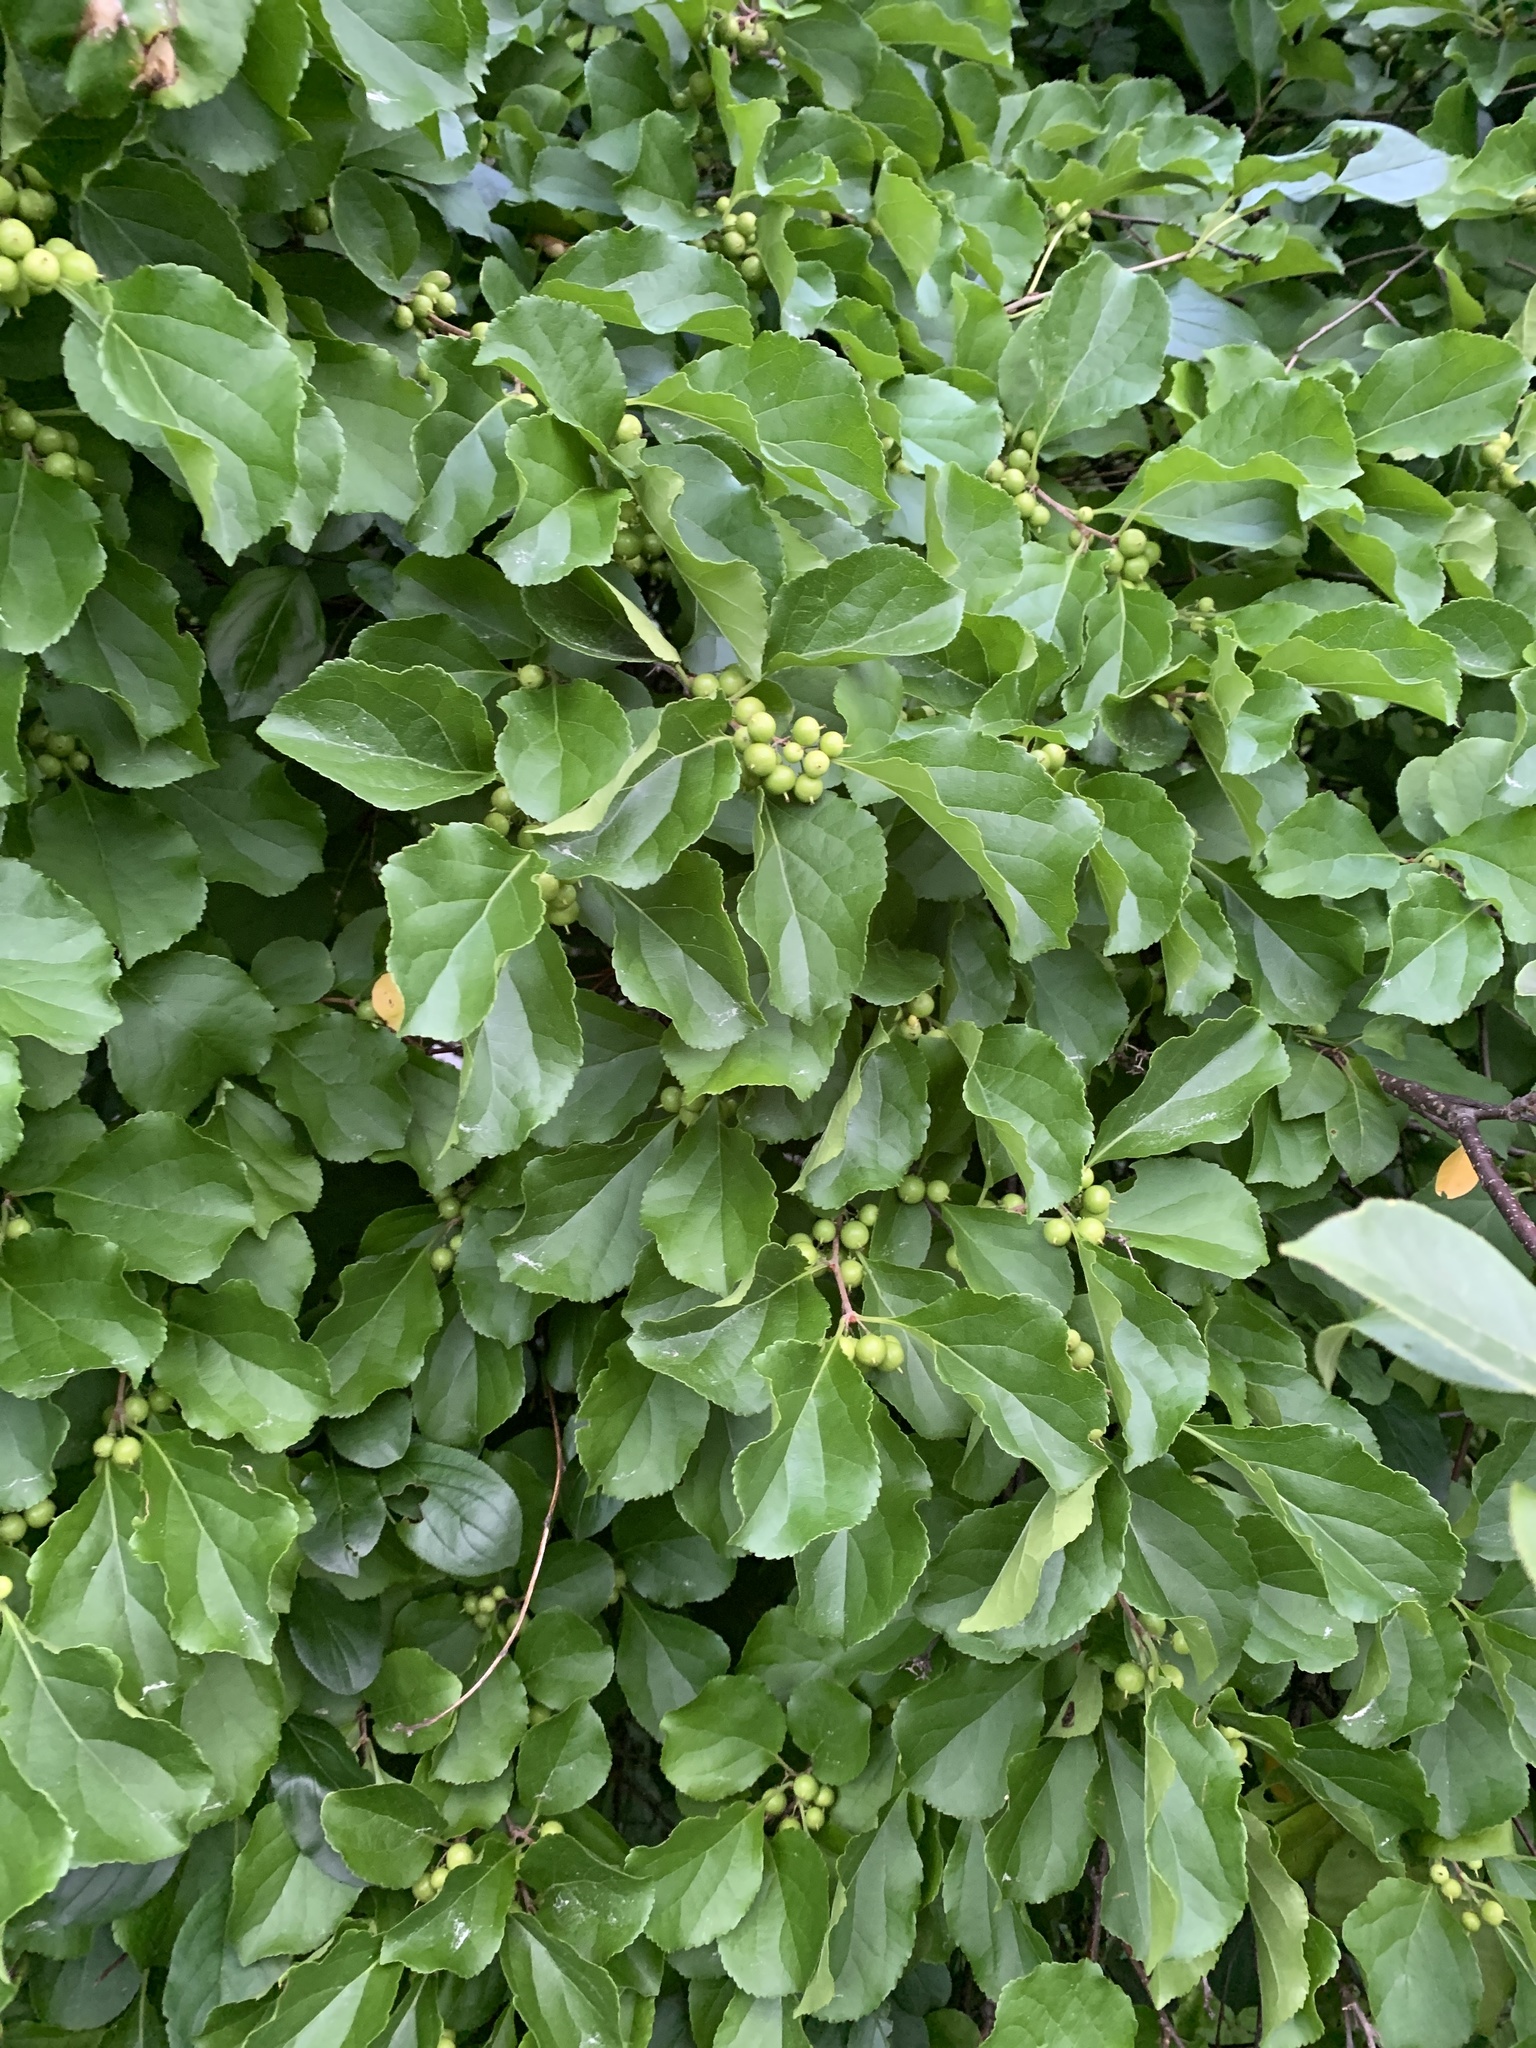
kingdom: Plantae
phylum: Tracheophyta
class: Magnoliopsida
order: Celastrales
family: Celastraceae
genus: Celastrus
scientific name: Celastrus orbiculatus
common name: Oriental bittersweet
